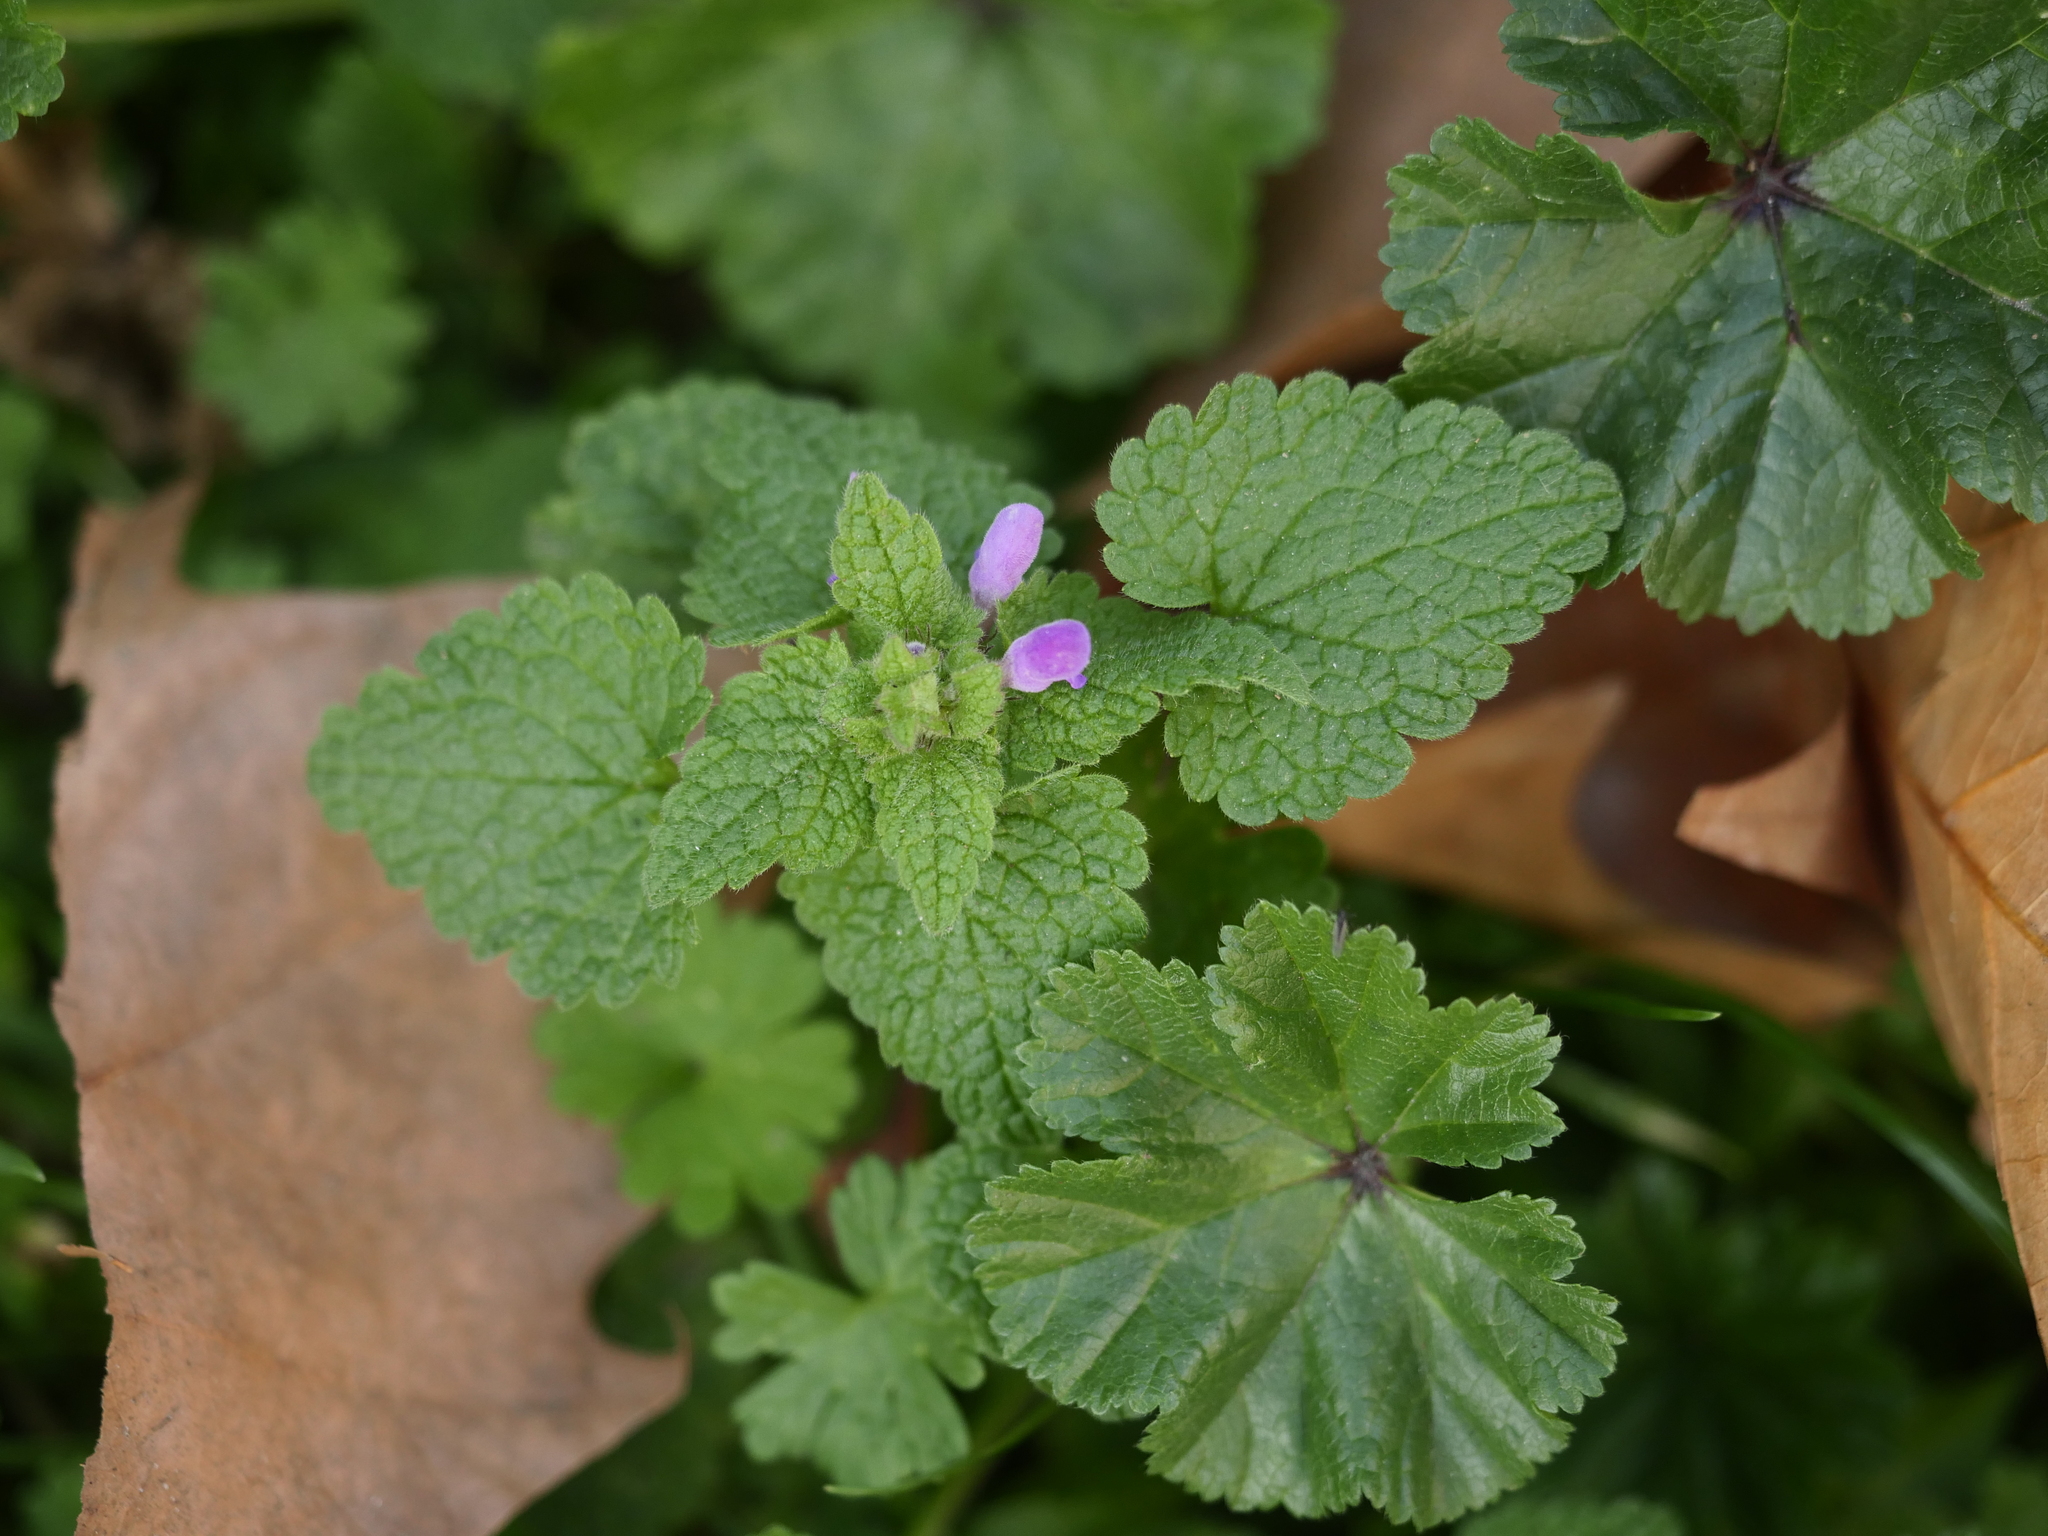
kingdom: Plantae
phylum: Tracheophyta
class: Magnoliopsida
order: Lamiales
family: Lamiaceae
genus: Lamium
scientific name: Lamium purpureum
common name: Red dead-nettle
